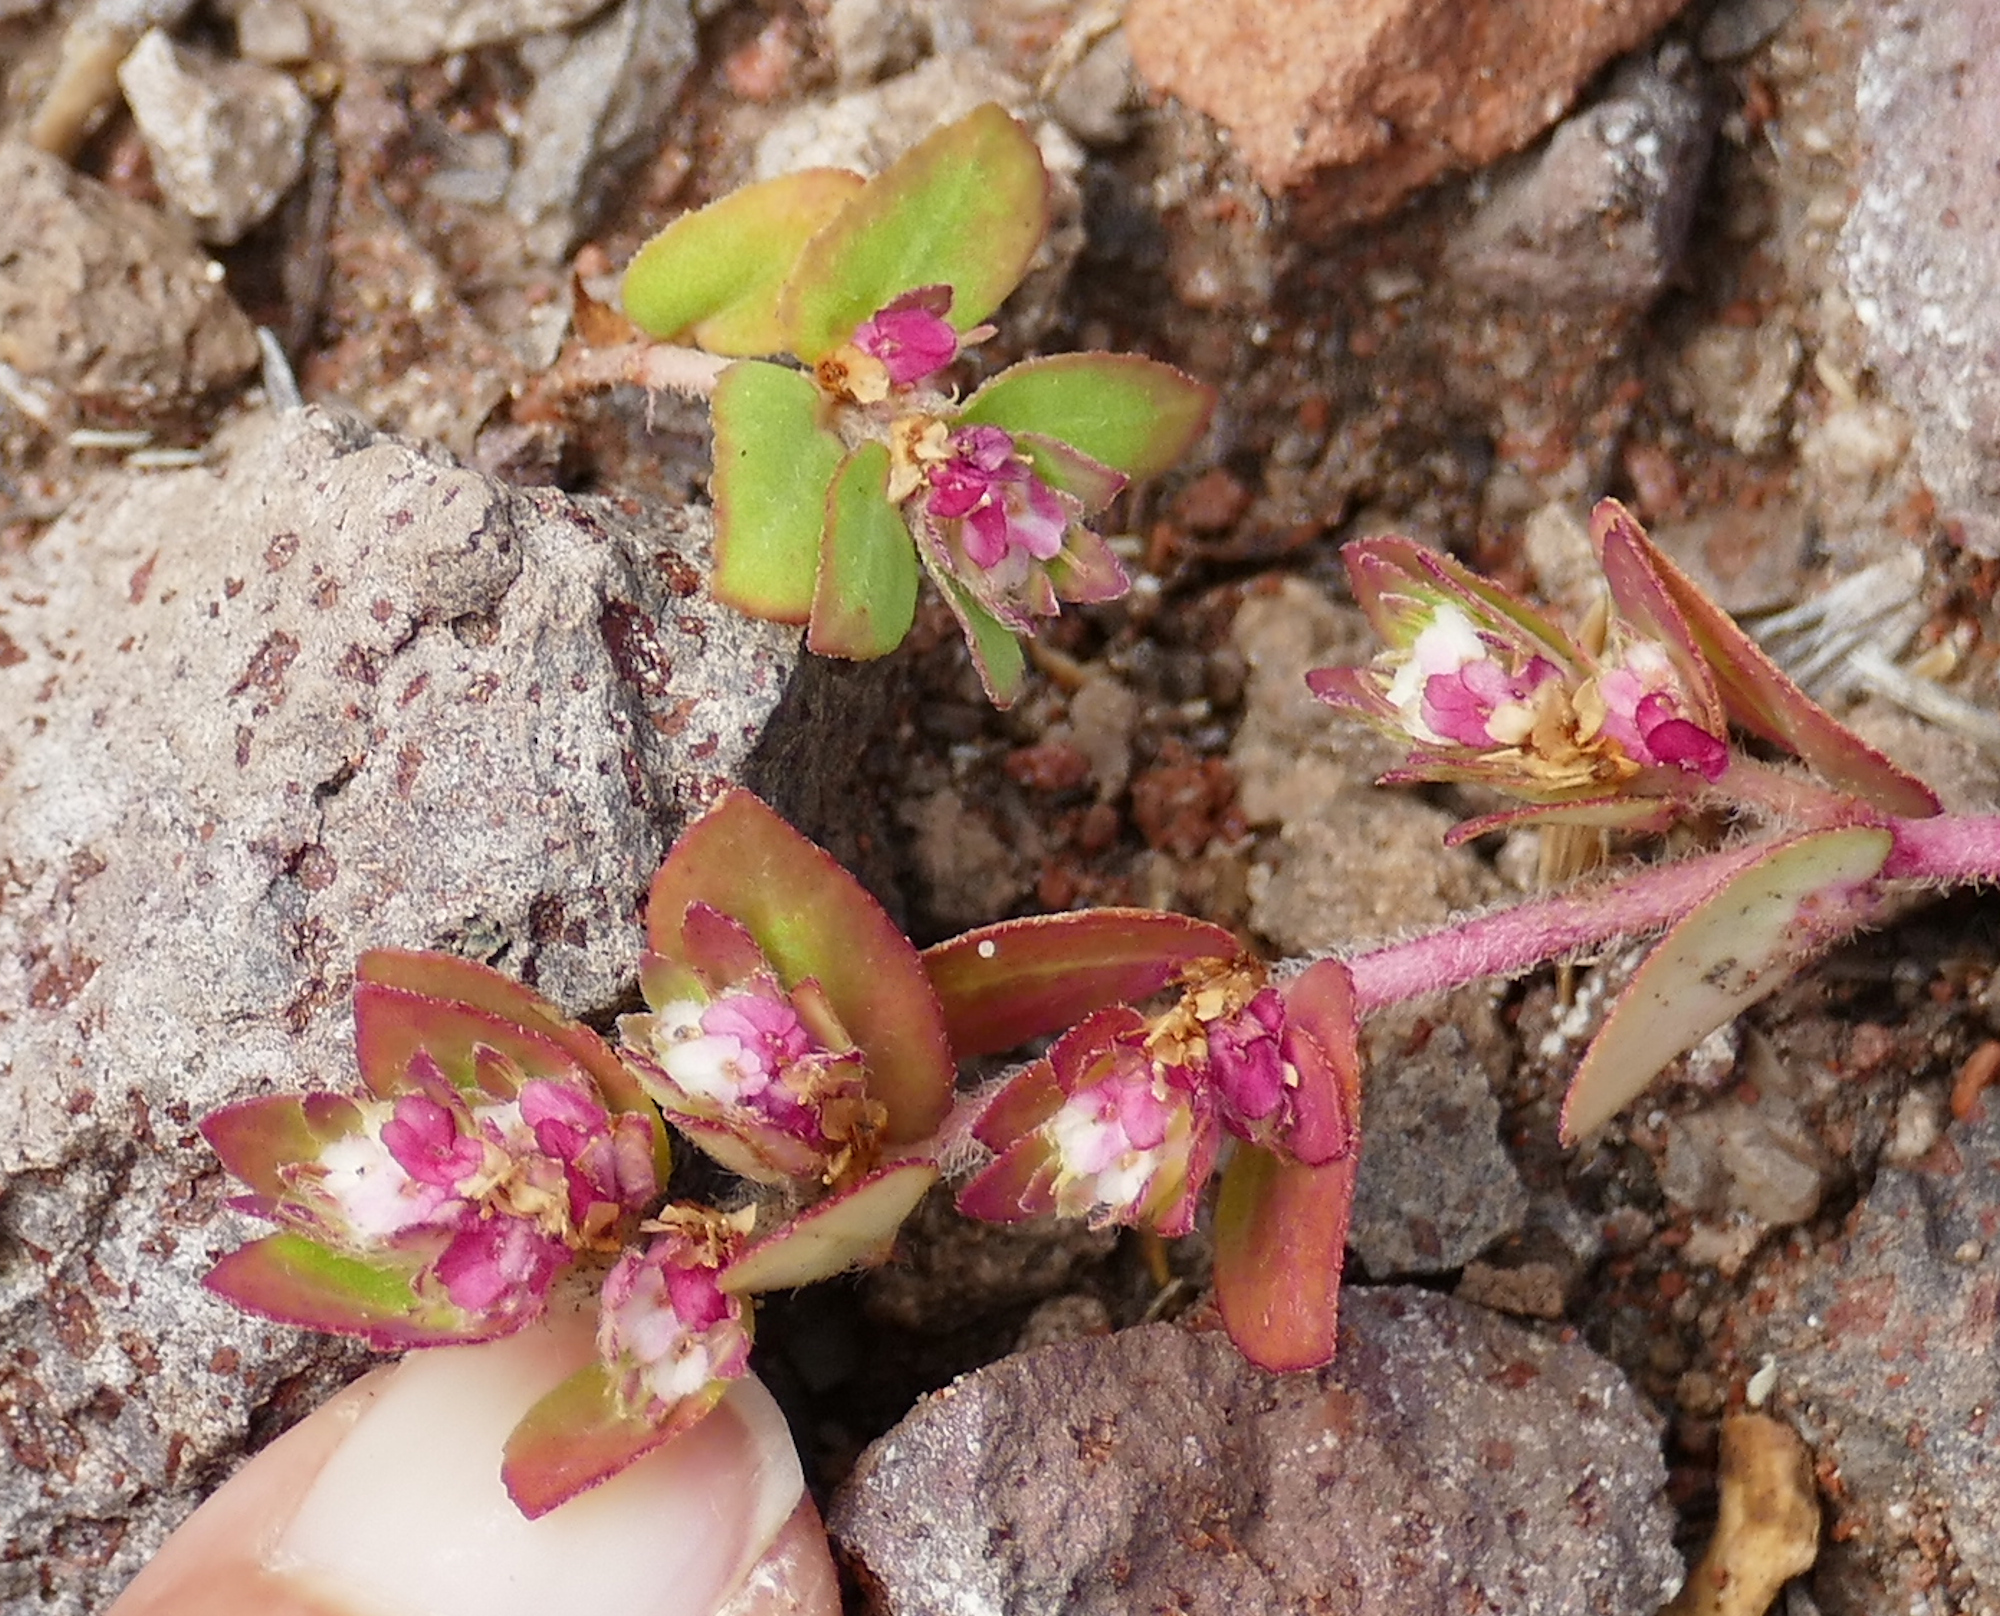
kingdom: Plantae
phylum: Tracheophyta
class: Magnoliopsida
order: Malpighiales
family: Euphorbiaceae
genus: Euphorbia
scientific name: Euphorbia indivisa
